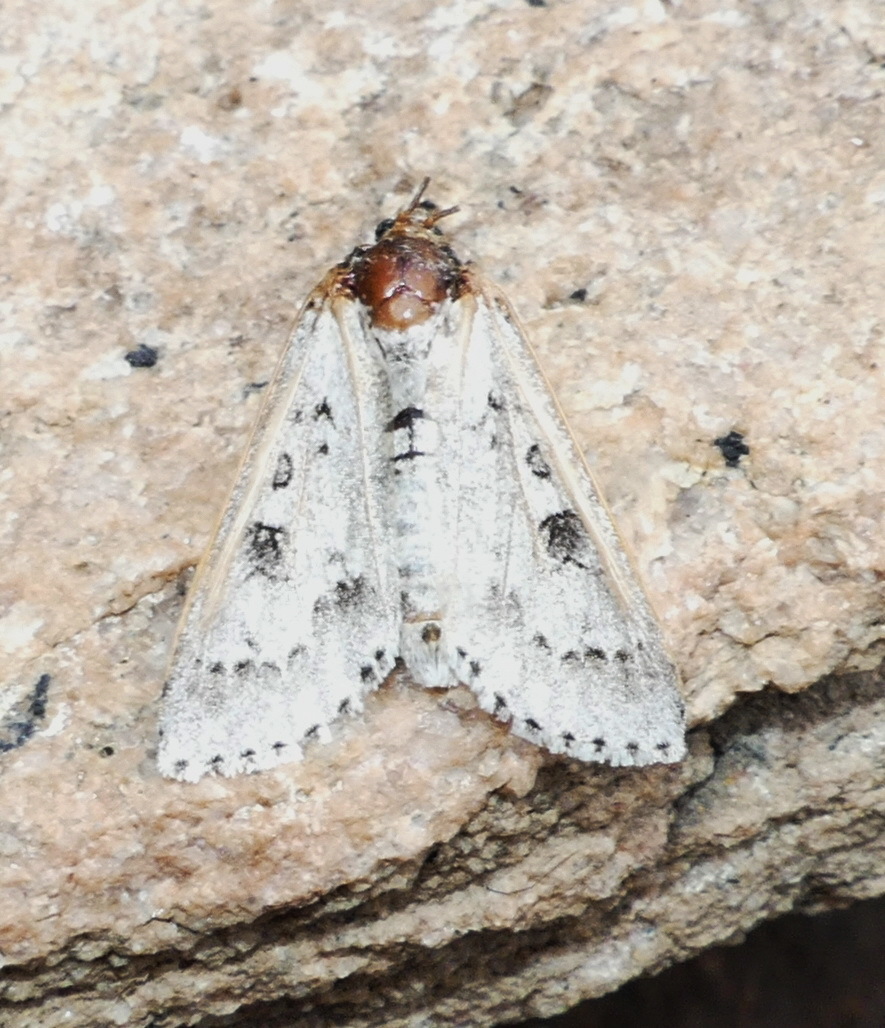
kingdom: Animalia
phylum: Arthropoda
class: Insecta
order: Lepidoptera
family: Noctuidae
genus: Acronicta
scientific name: Acronicta insita
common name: Large gray dagger
